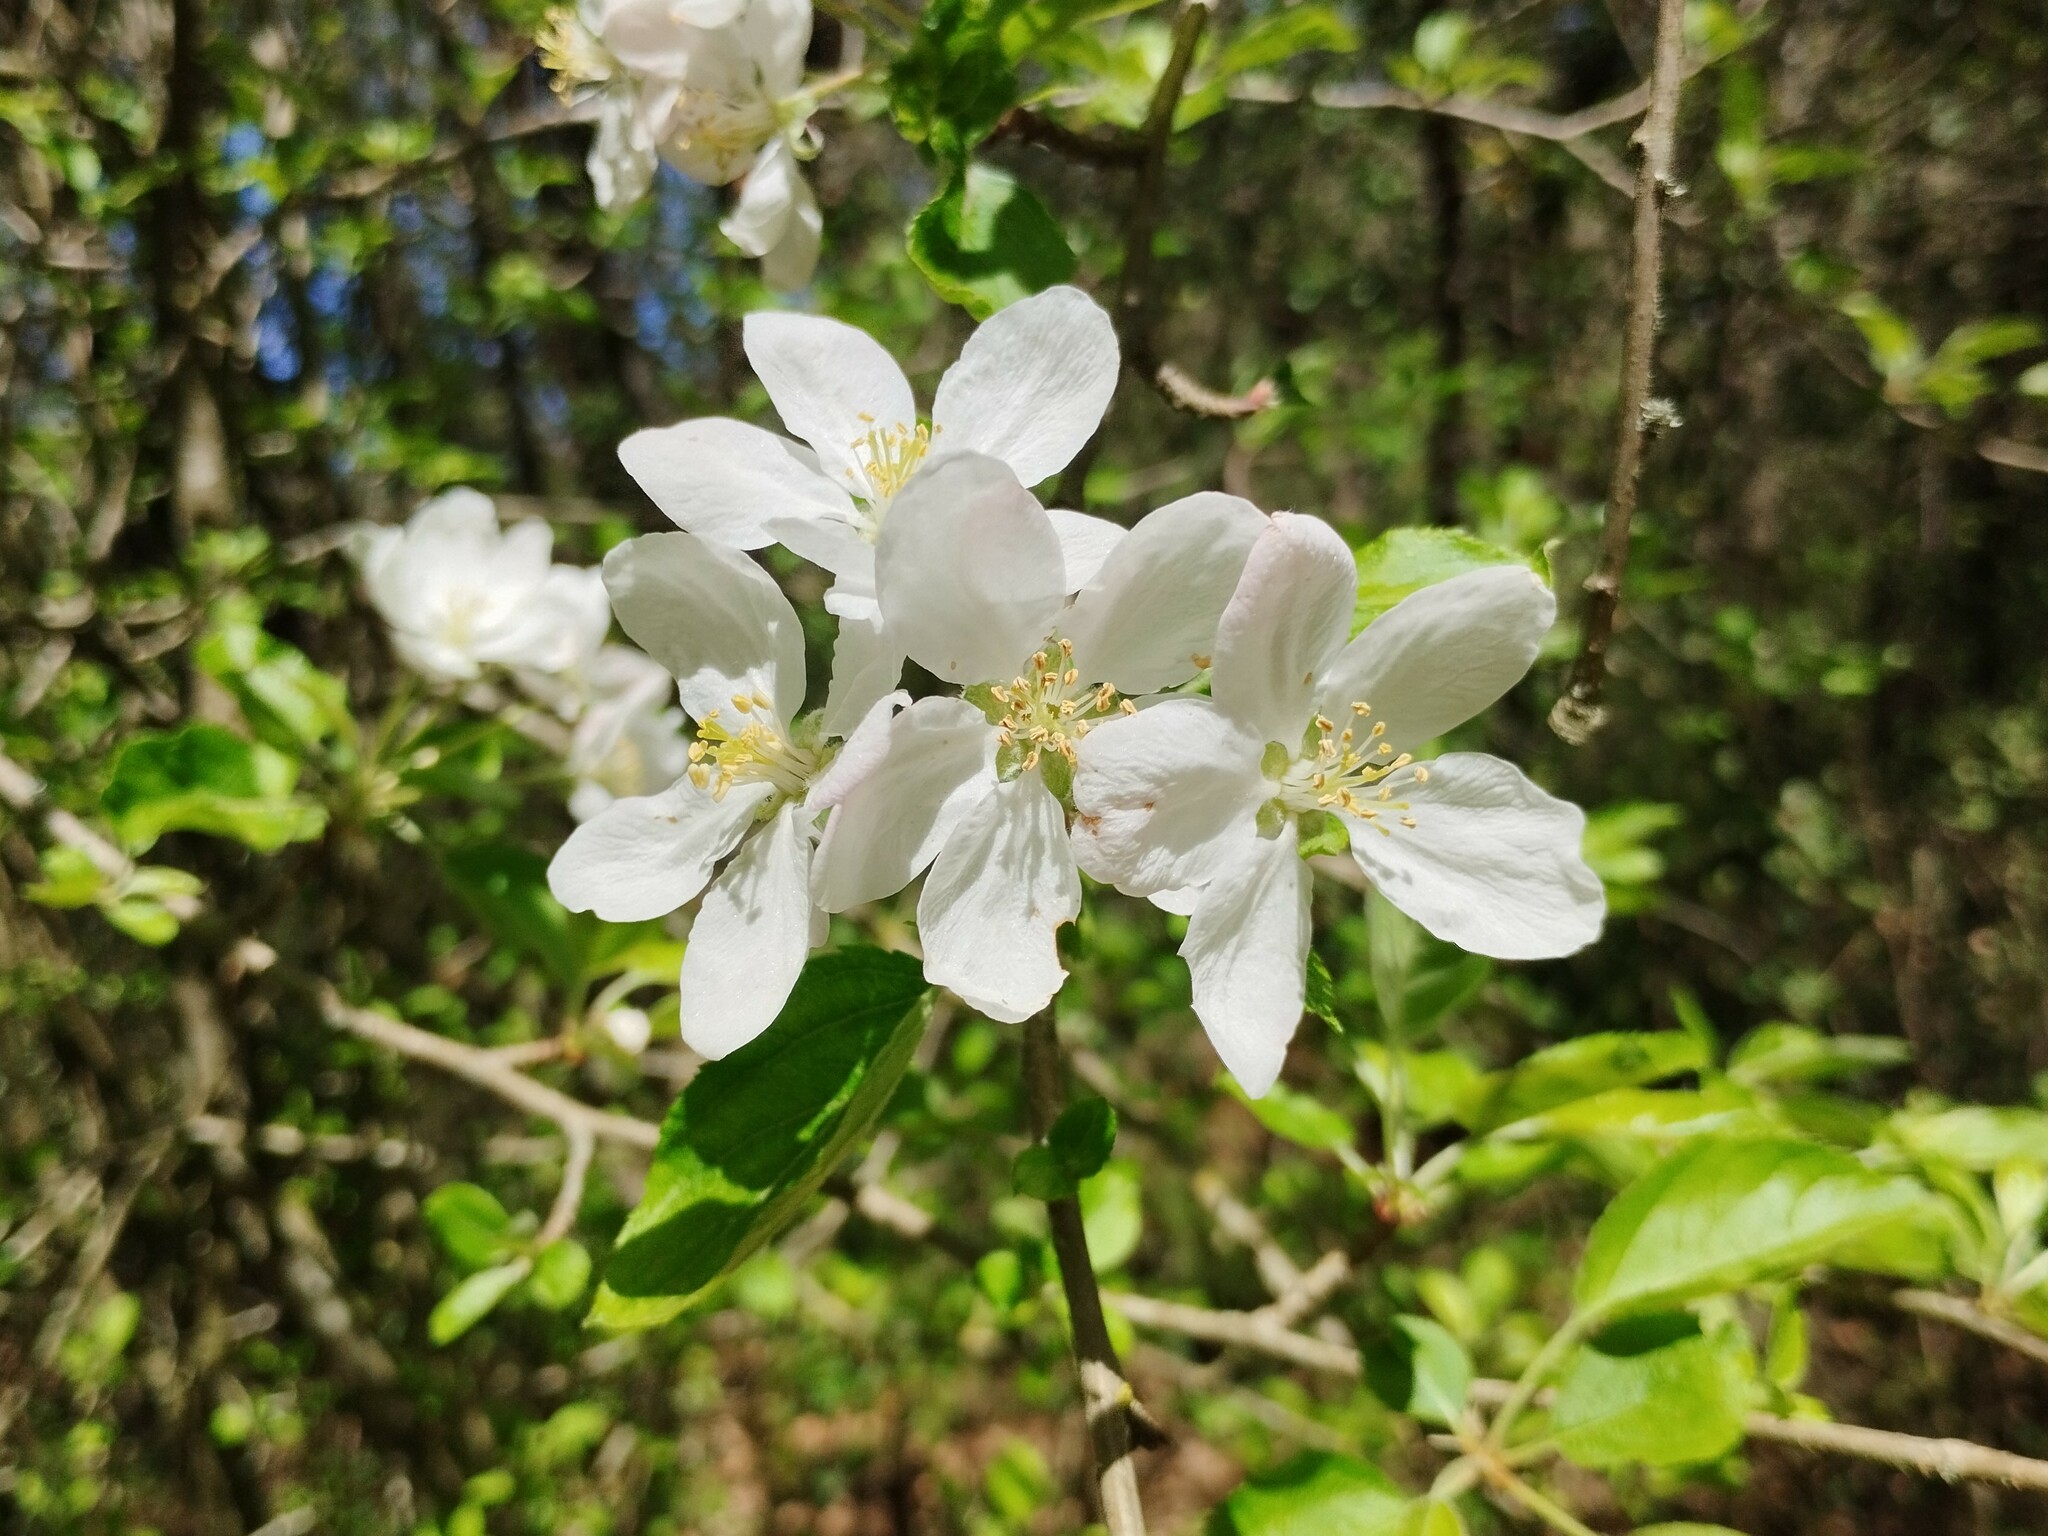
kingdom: Plantae
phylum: Tracheophyta
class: Magnoliopsida
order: Rosales
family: Rosaceae
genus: Malus
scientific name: Malus sylvestris
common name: Crab apple
